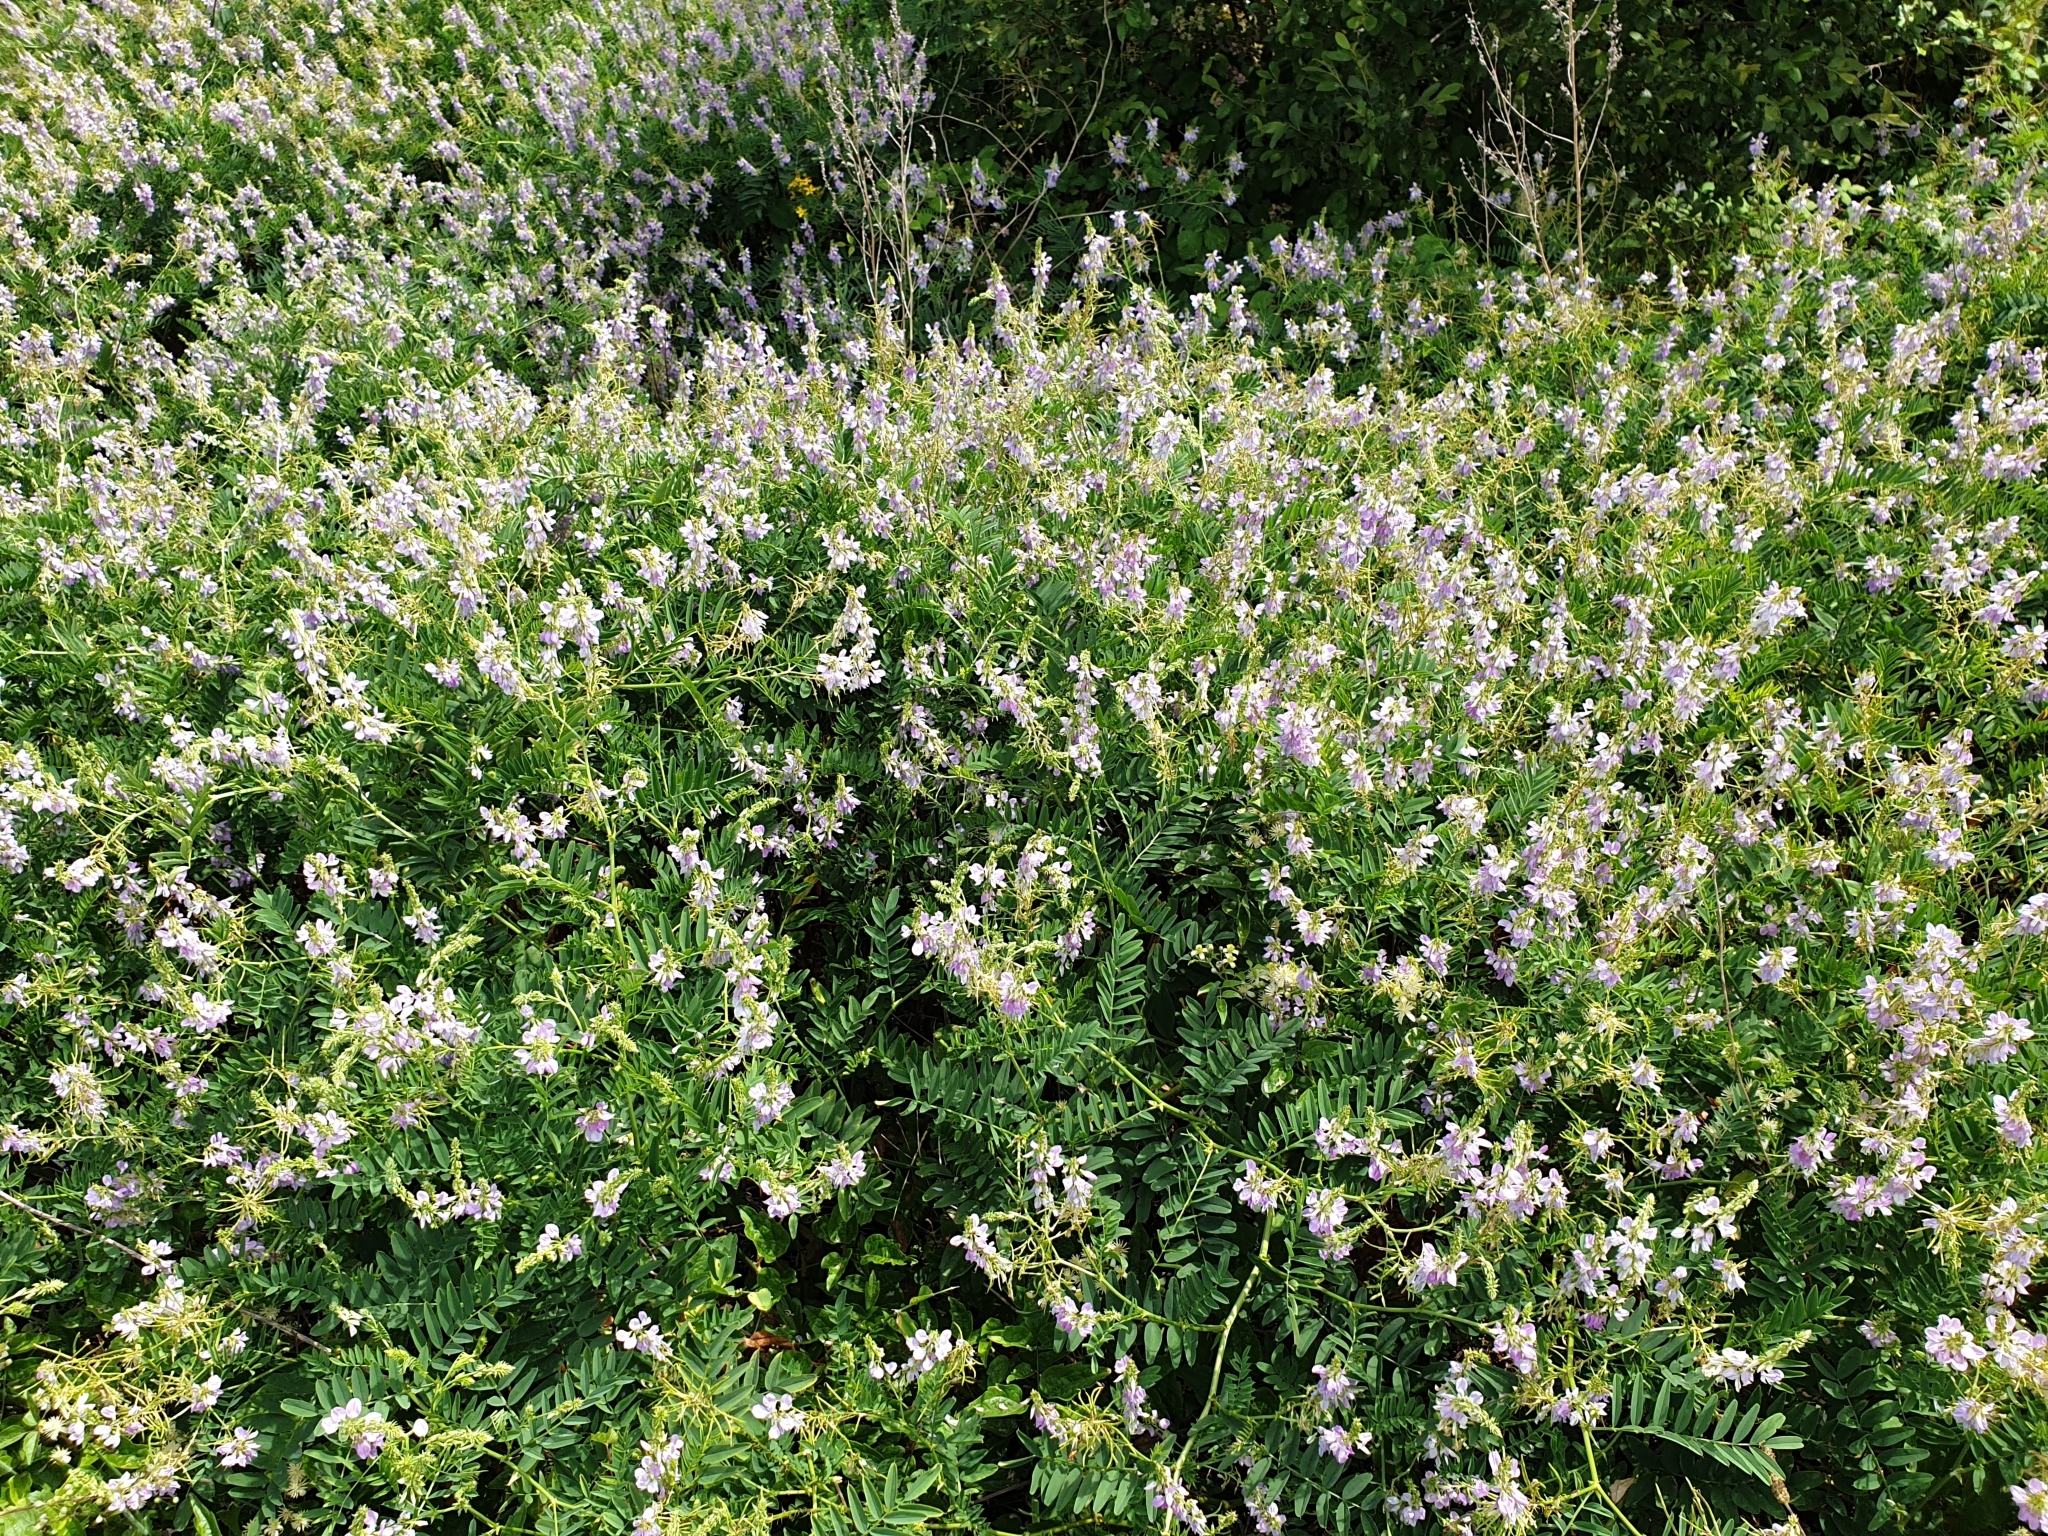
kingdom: Plantae
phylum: Tracheophyta
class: Magnoliopsida
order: Fabales
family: Fabaceae
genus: Galega
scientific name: Galega officinalis
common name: Goat's-rue
